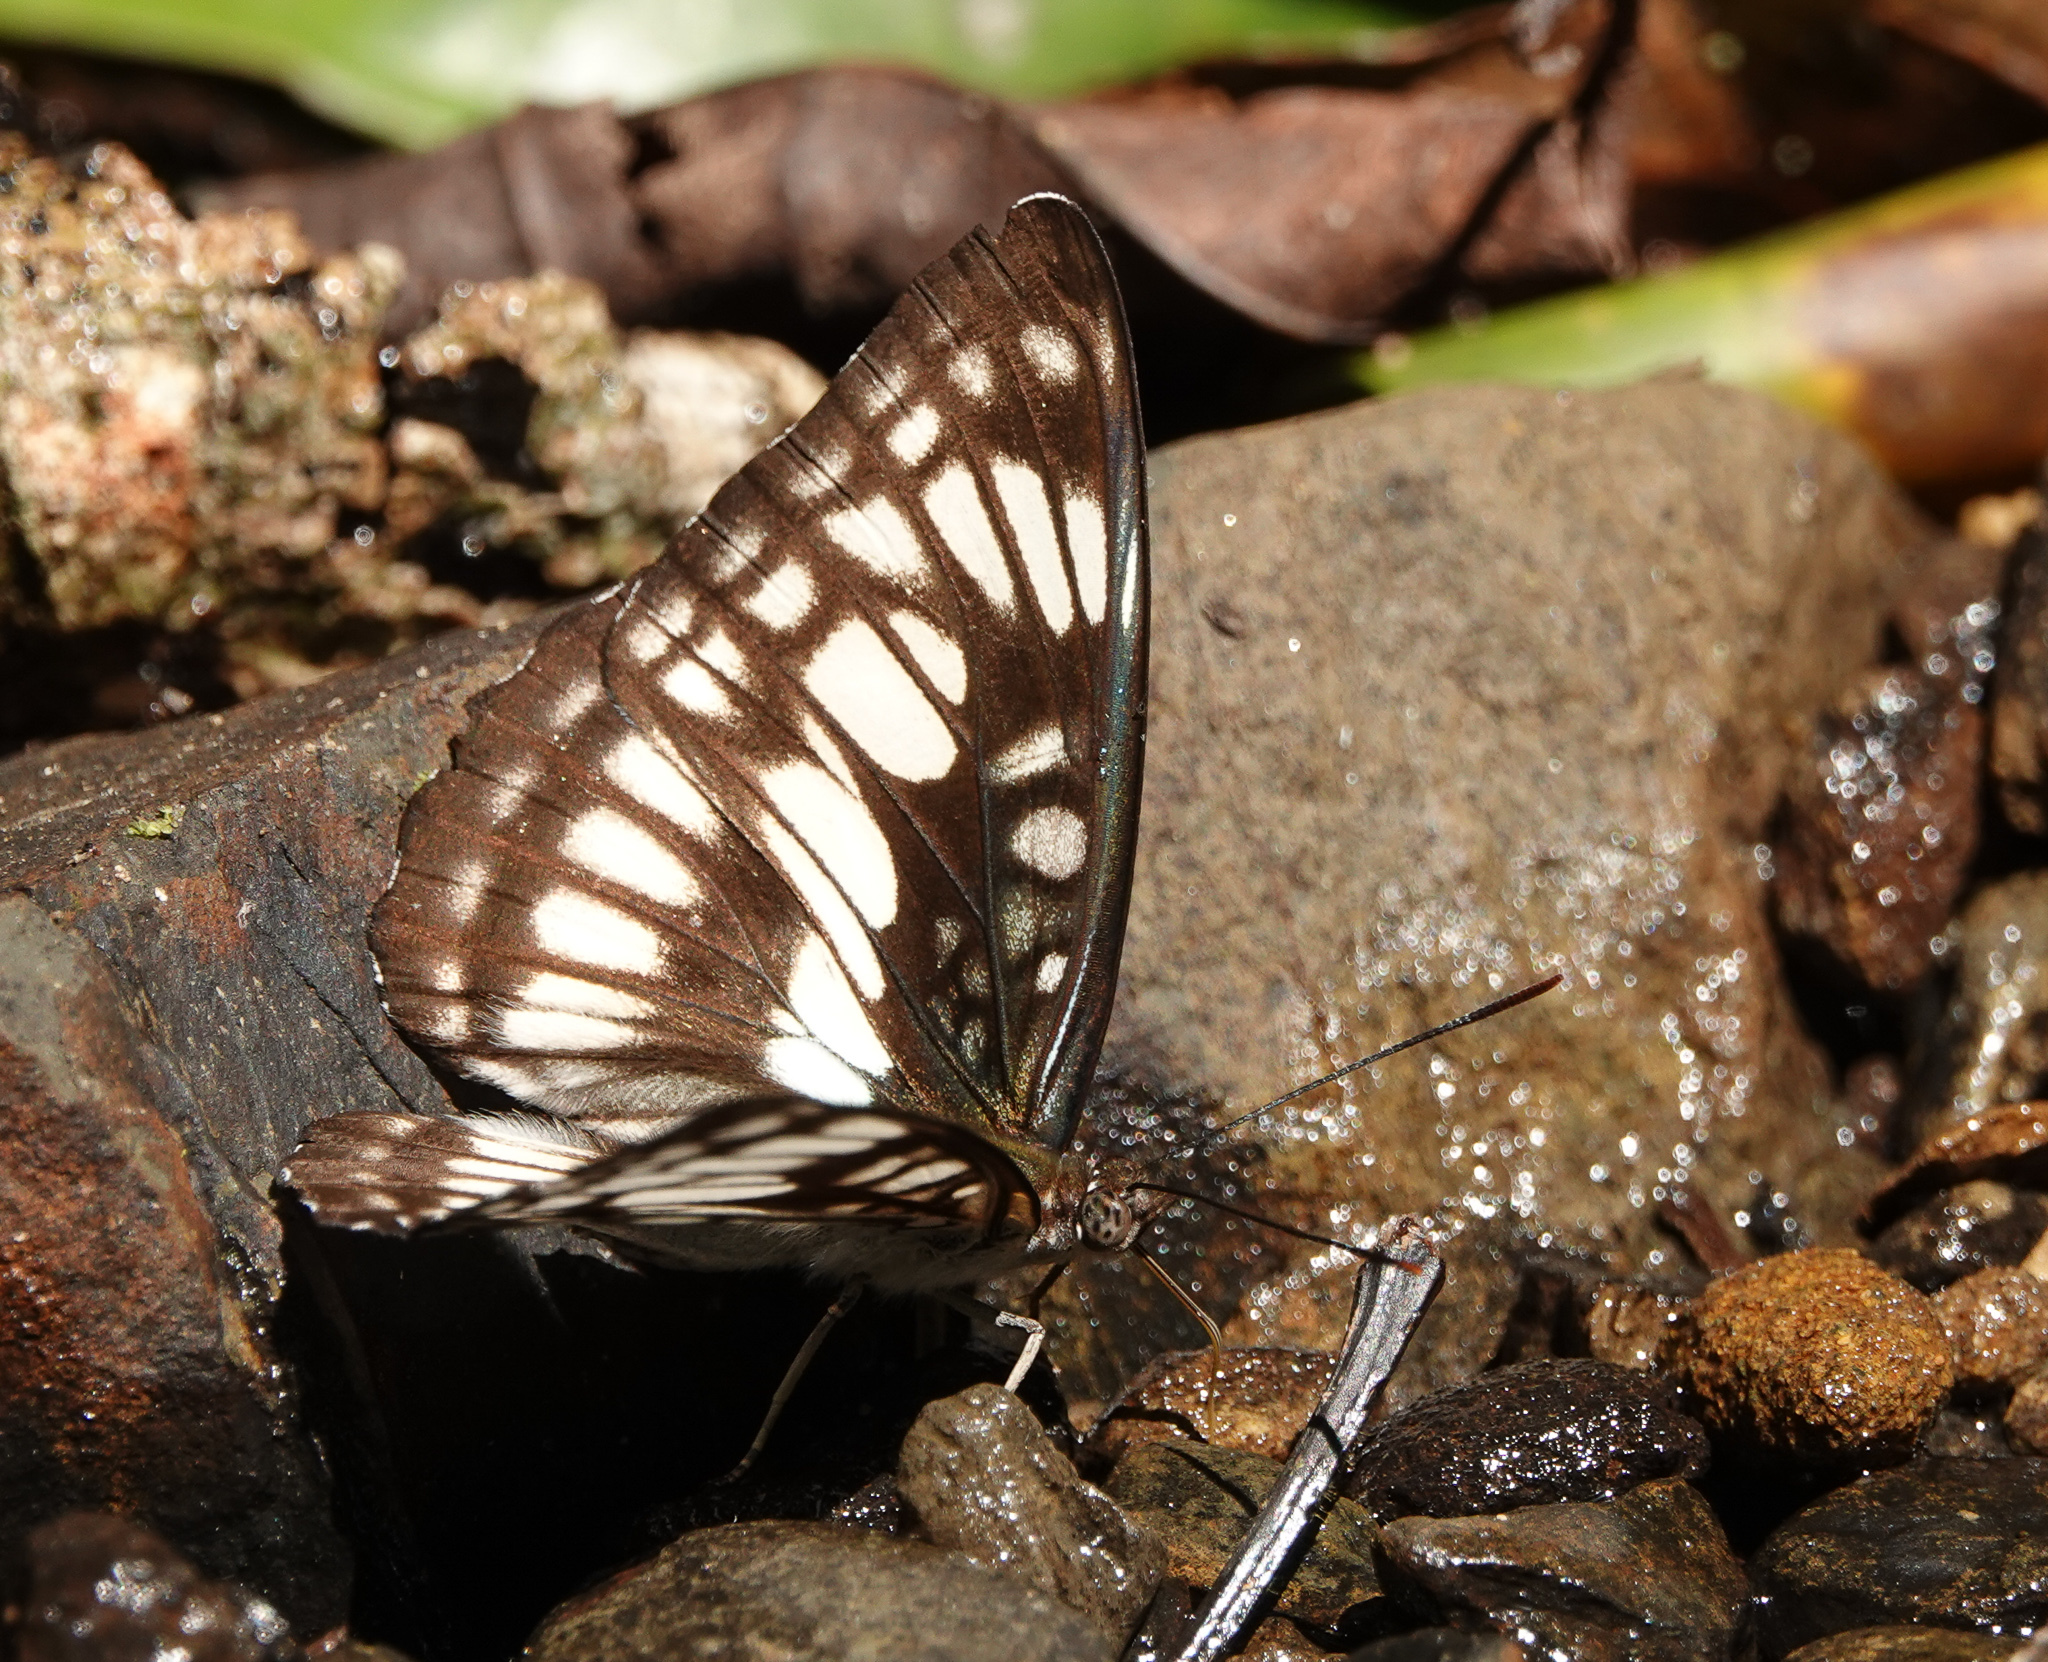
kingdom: Animalia
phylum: Arthropoda
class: Insecta
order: Lepidoptera
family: Nymphalidae
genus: Parathyma
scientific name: Parathyma ranga
